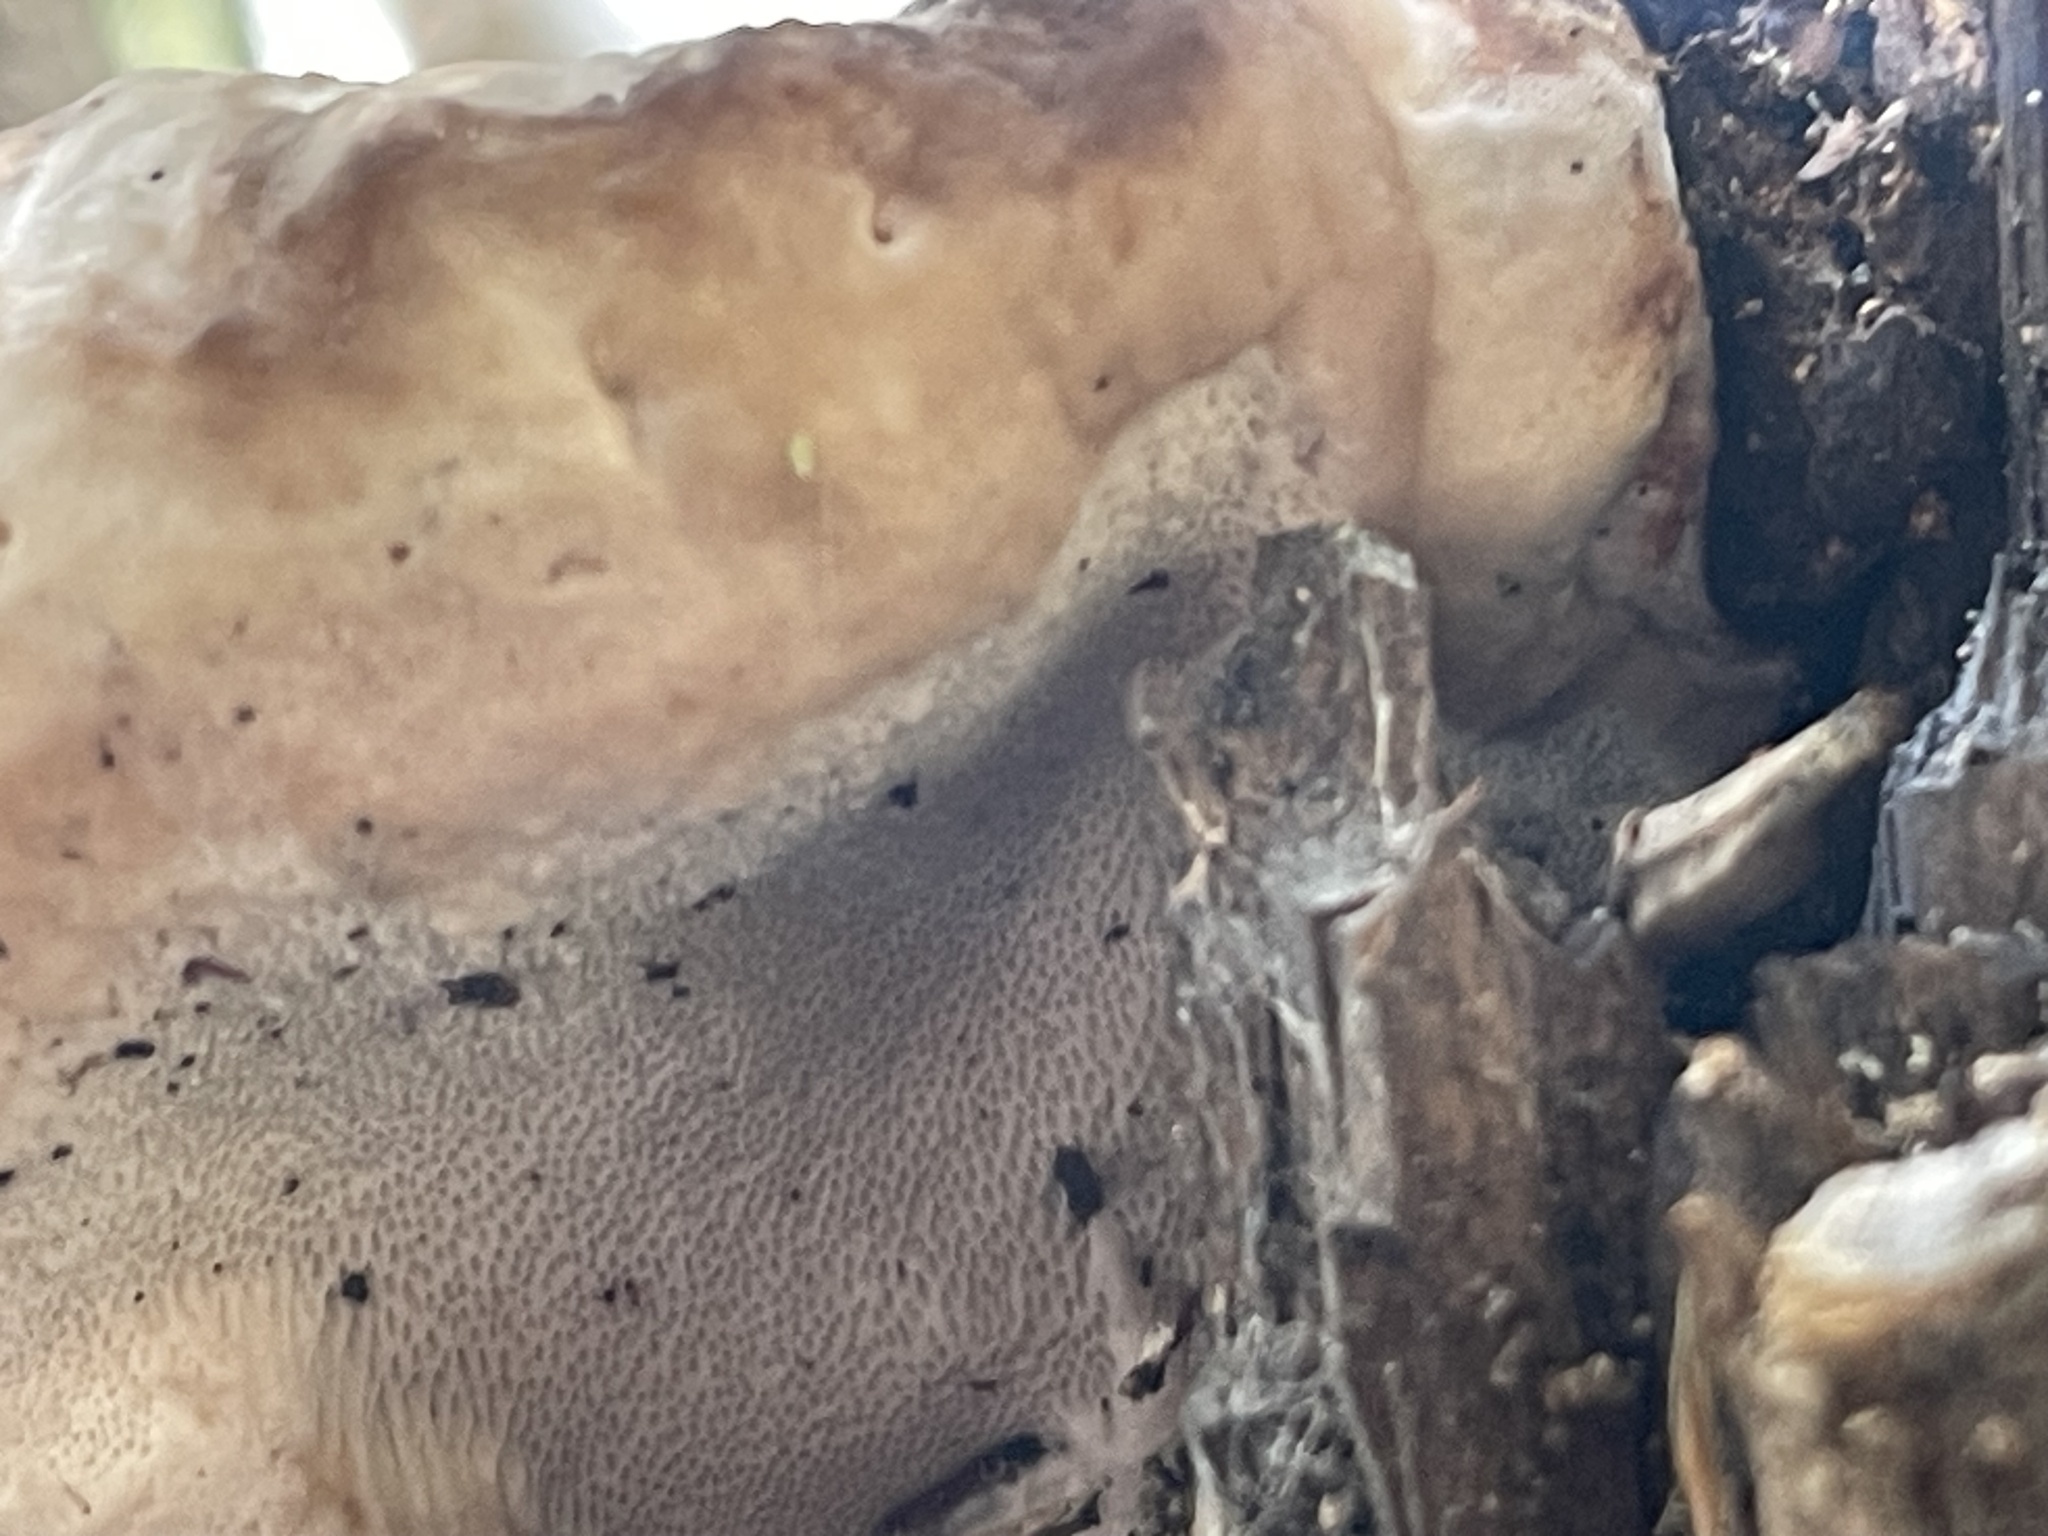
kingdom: Fungi
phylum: Basidiomycota
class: Agaricomycetes
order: Polyporales
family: Fomitopsidaceae
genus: Fomitopsis
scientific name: Fomitopsis schrenkii
